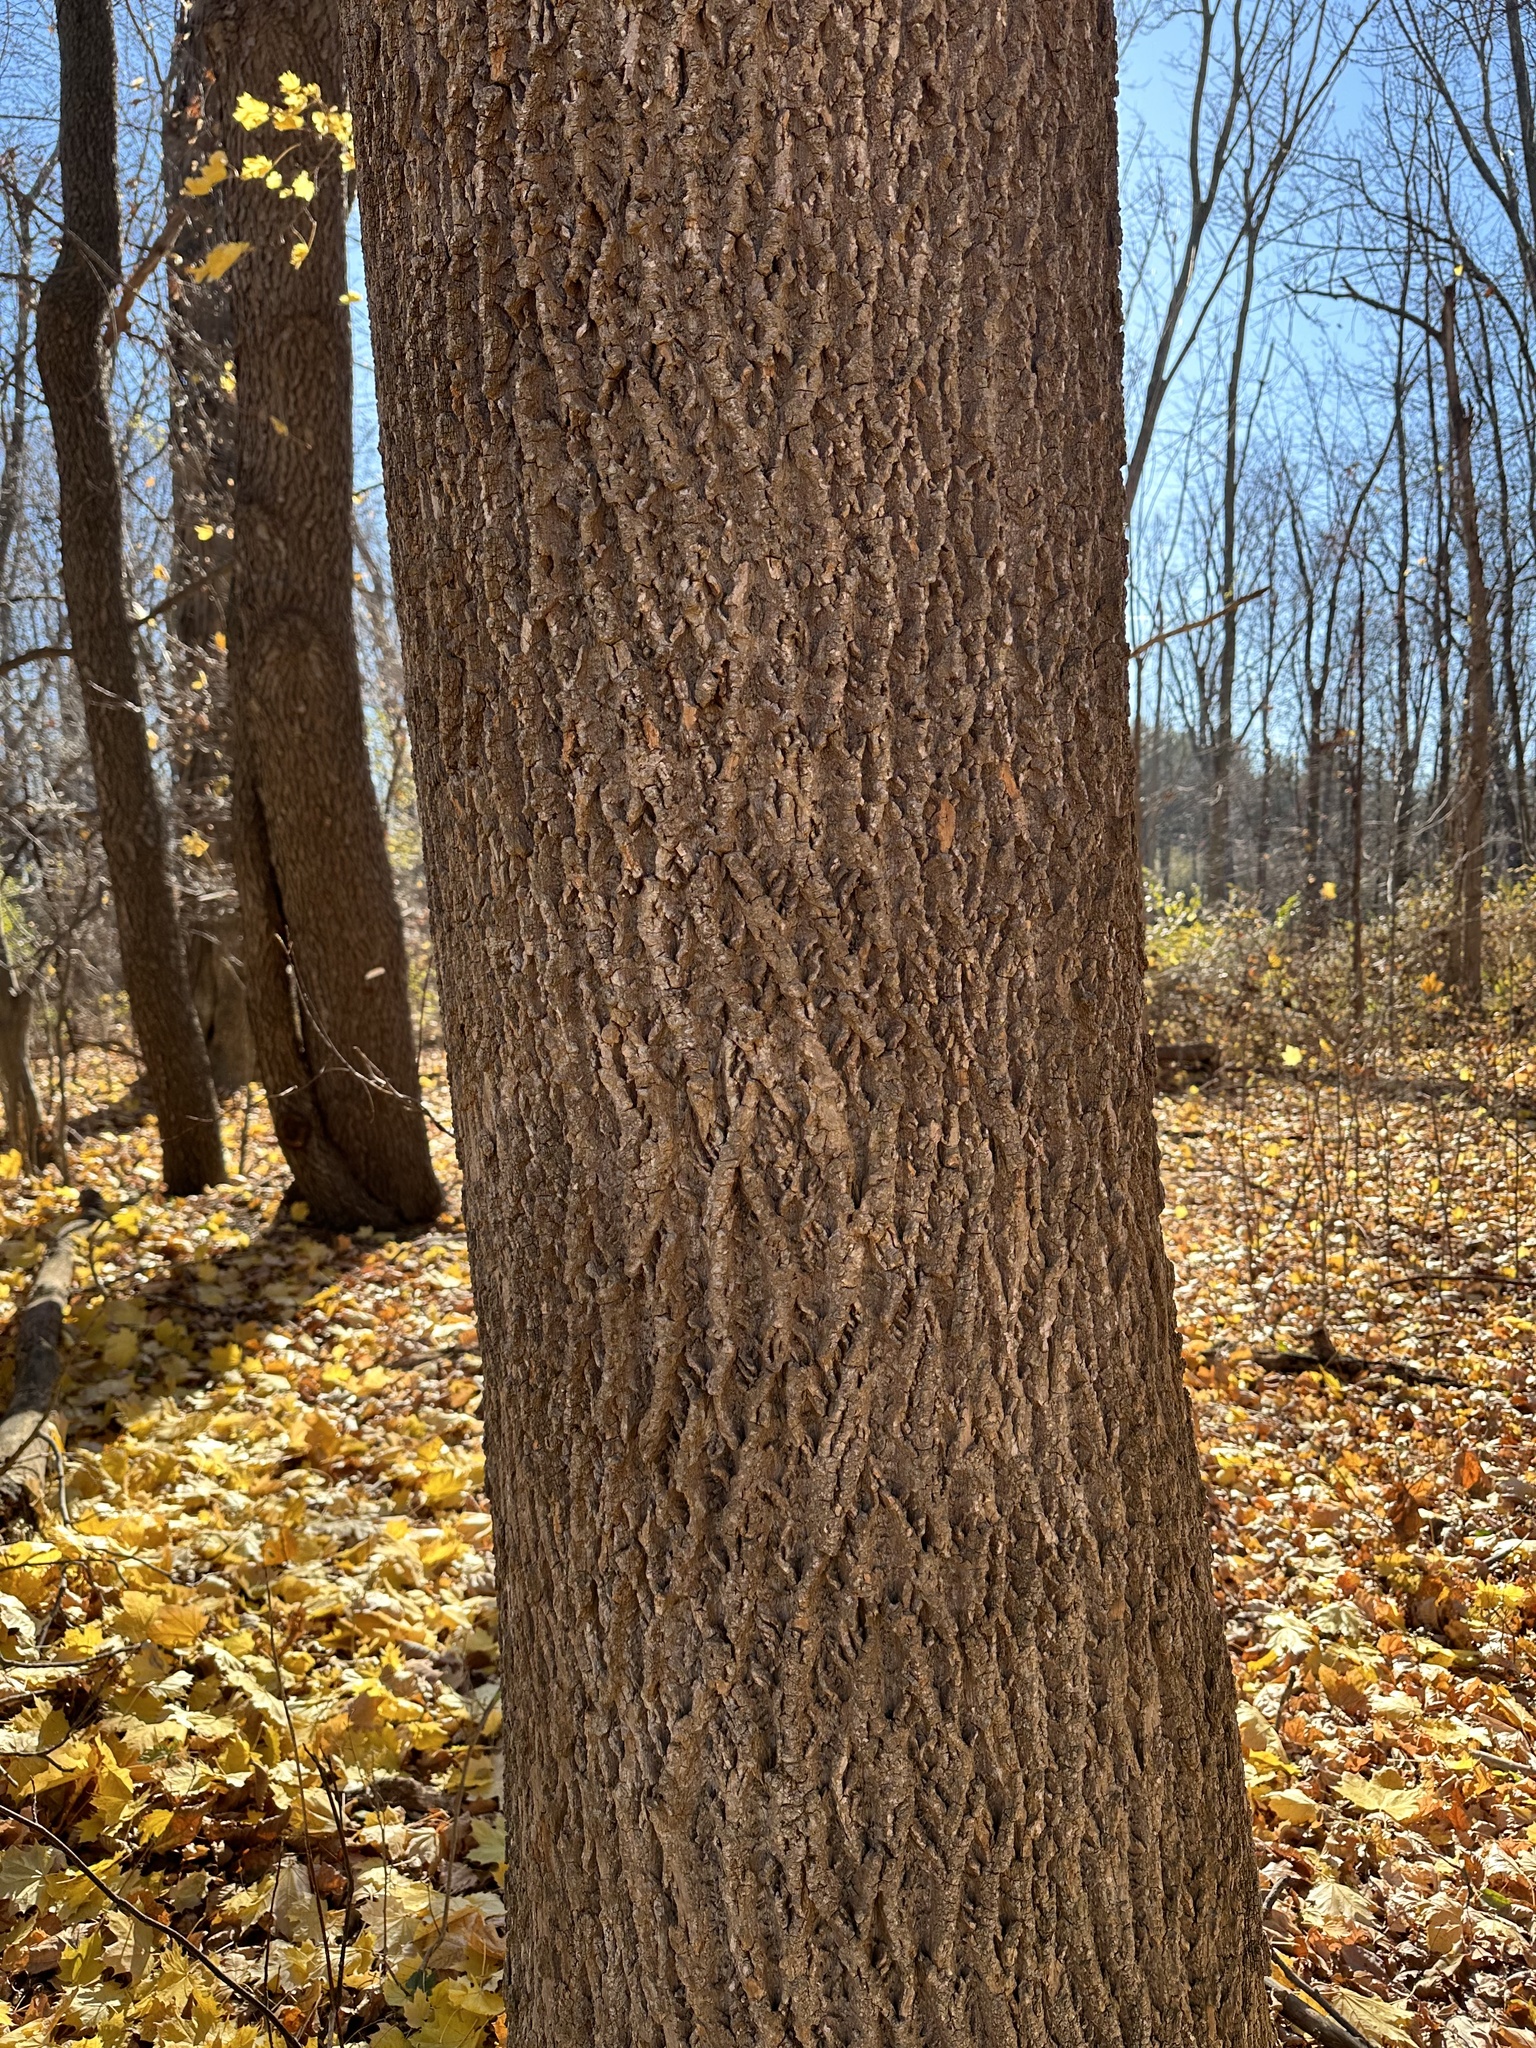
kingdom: Plantae
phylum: Tracheophyta
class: Magnoliopsida
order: Magnoliales
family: Magnoliaceae
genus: Liriodendron
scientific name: Liriodendron tulipifera
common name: Tulip tree
